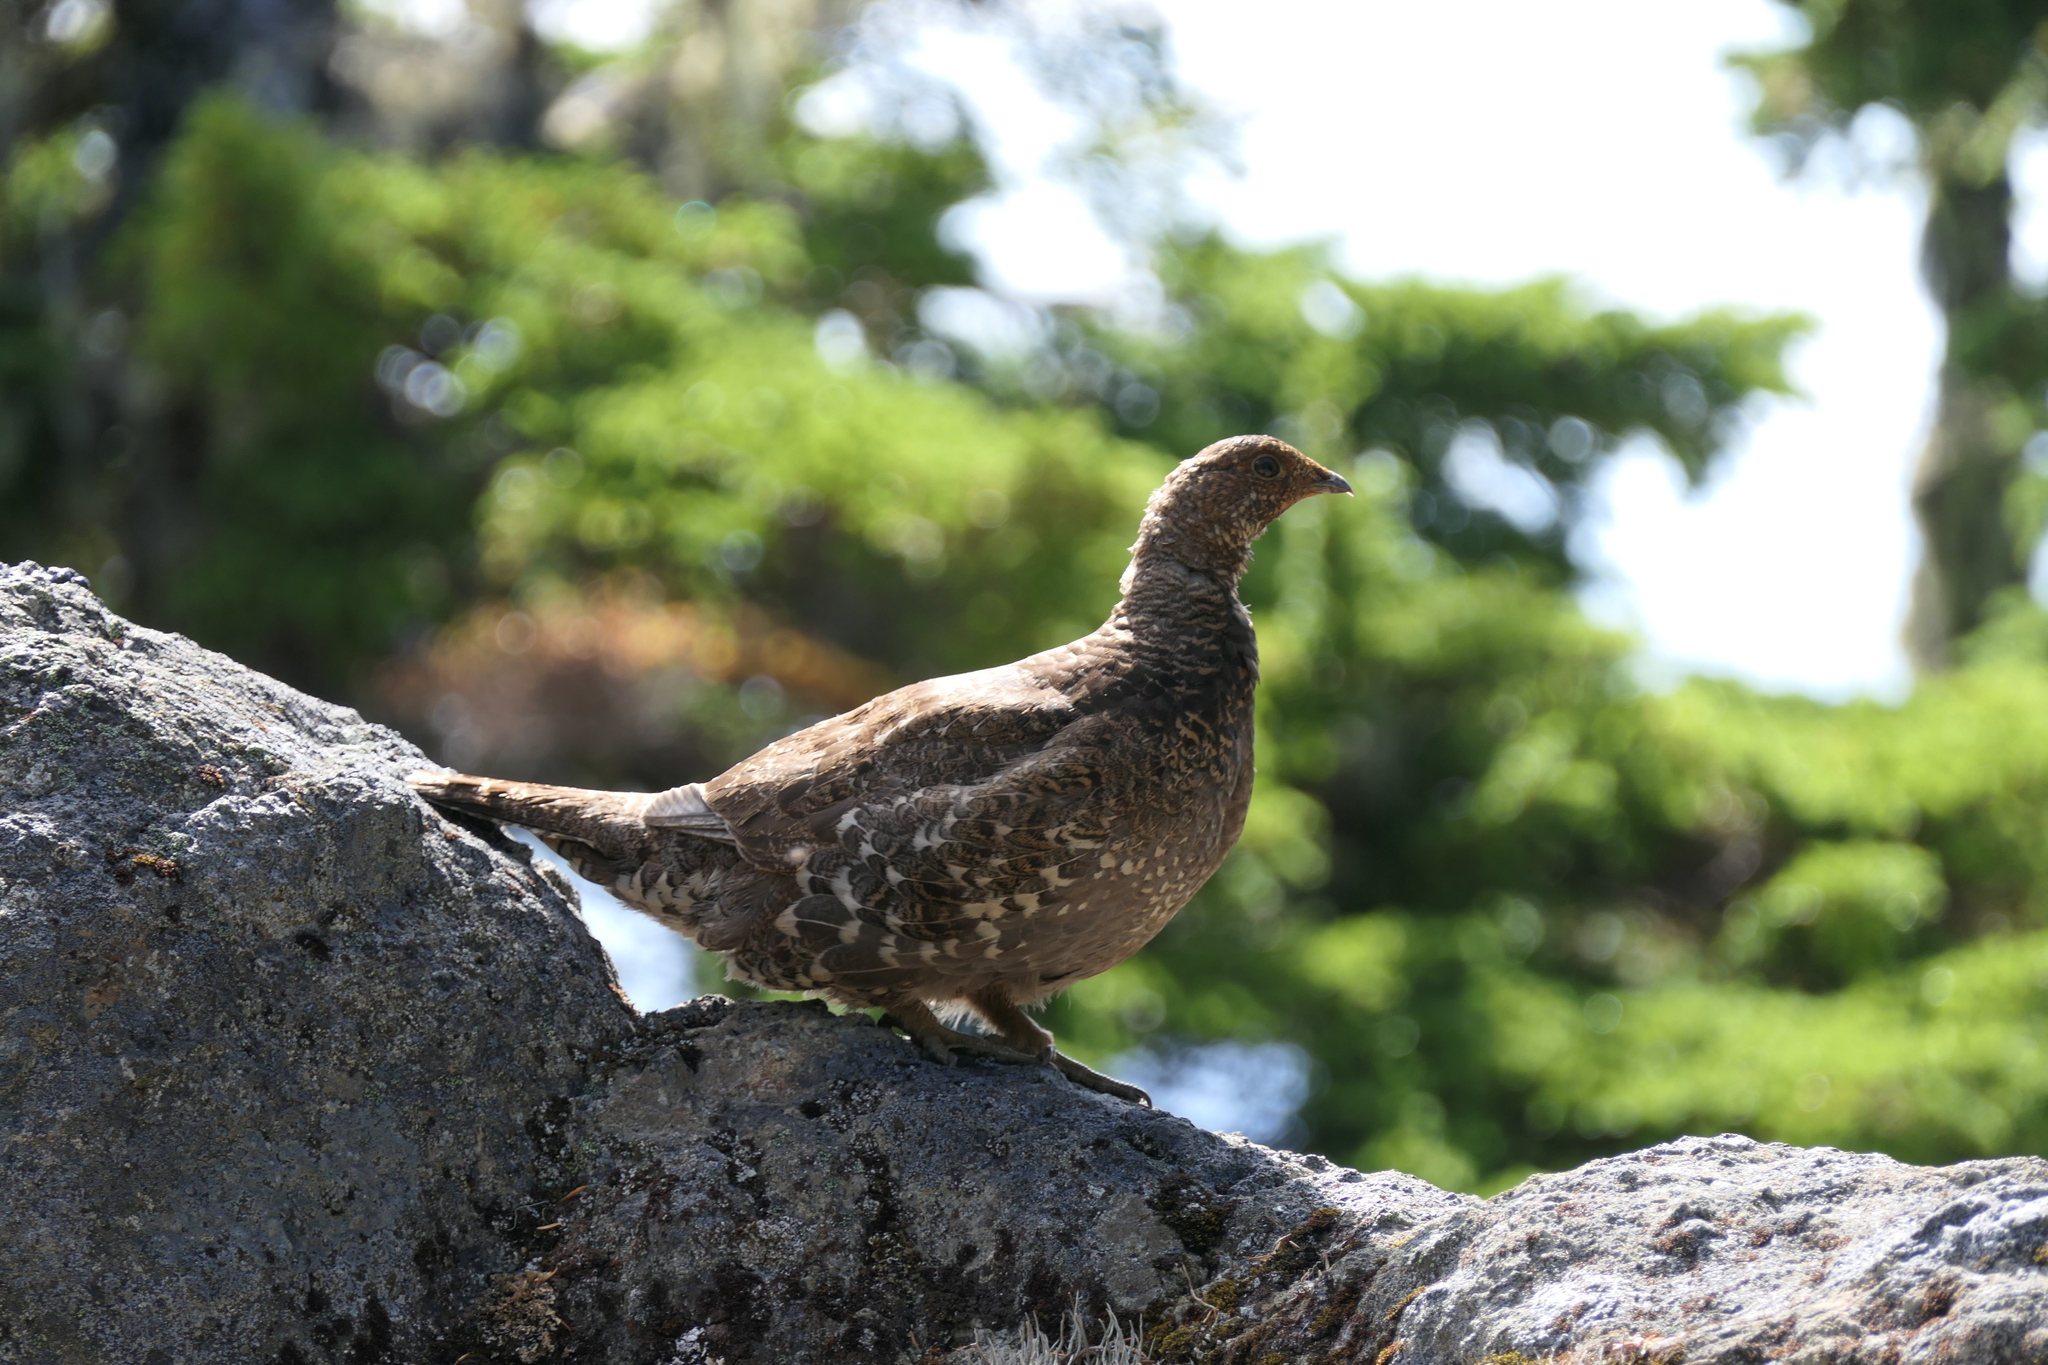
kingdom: Animalia
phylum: Chordata
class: Aves
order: Galliformes
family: Phasianidae
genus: Dendragapus
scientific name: Dendragapus fuliginosus
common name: Sooty grouse
